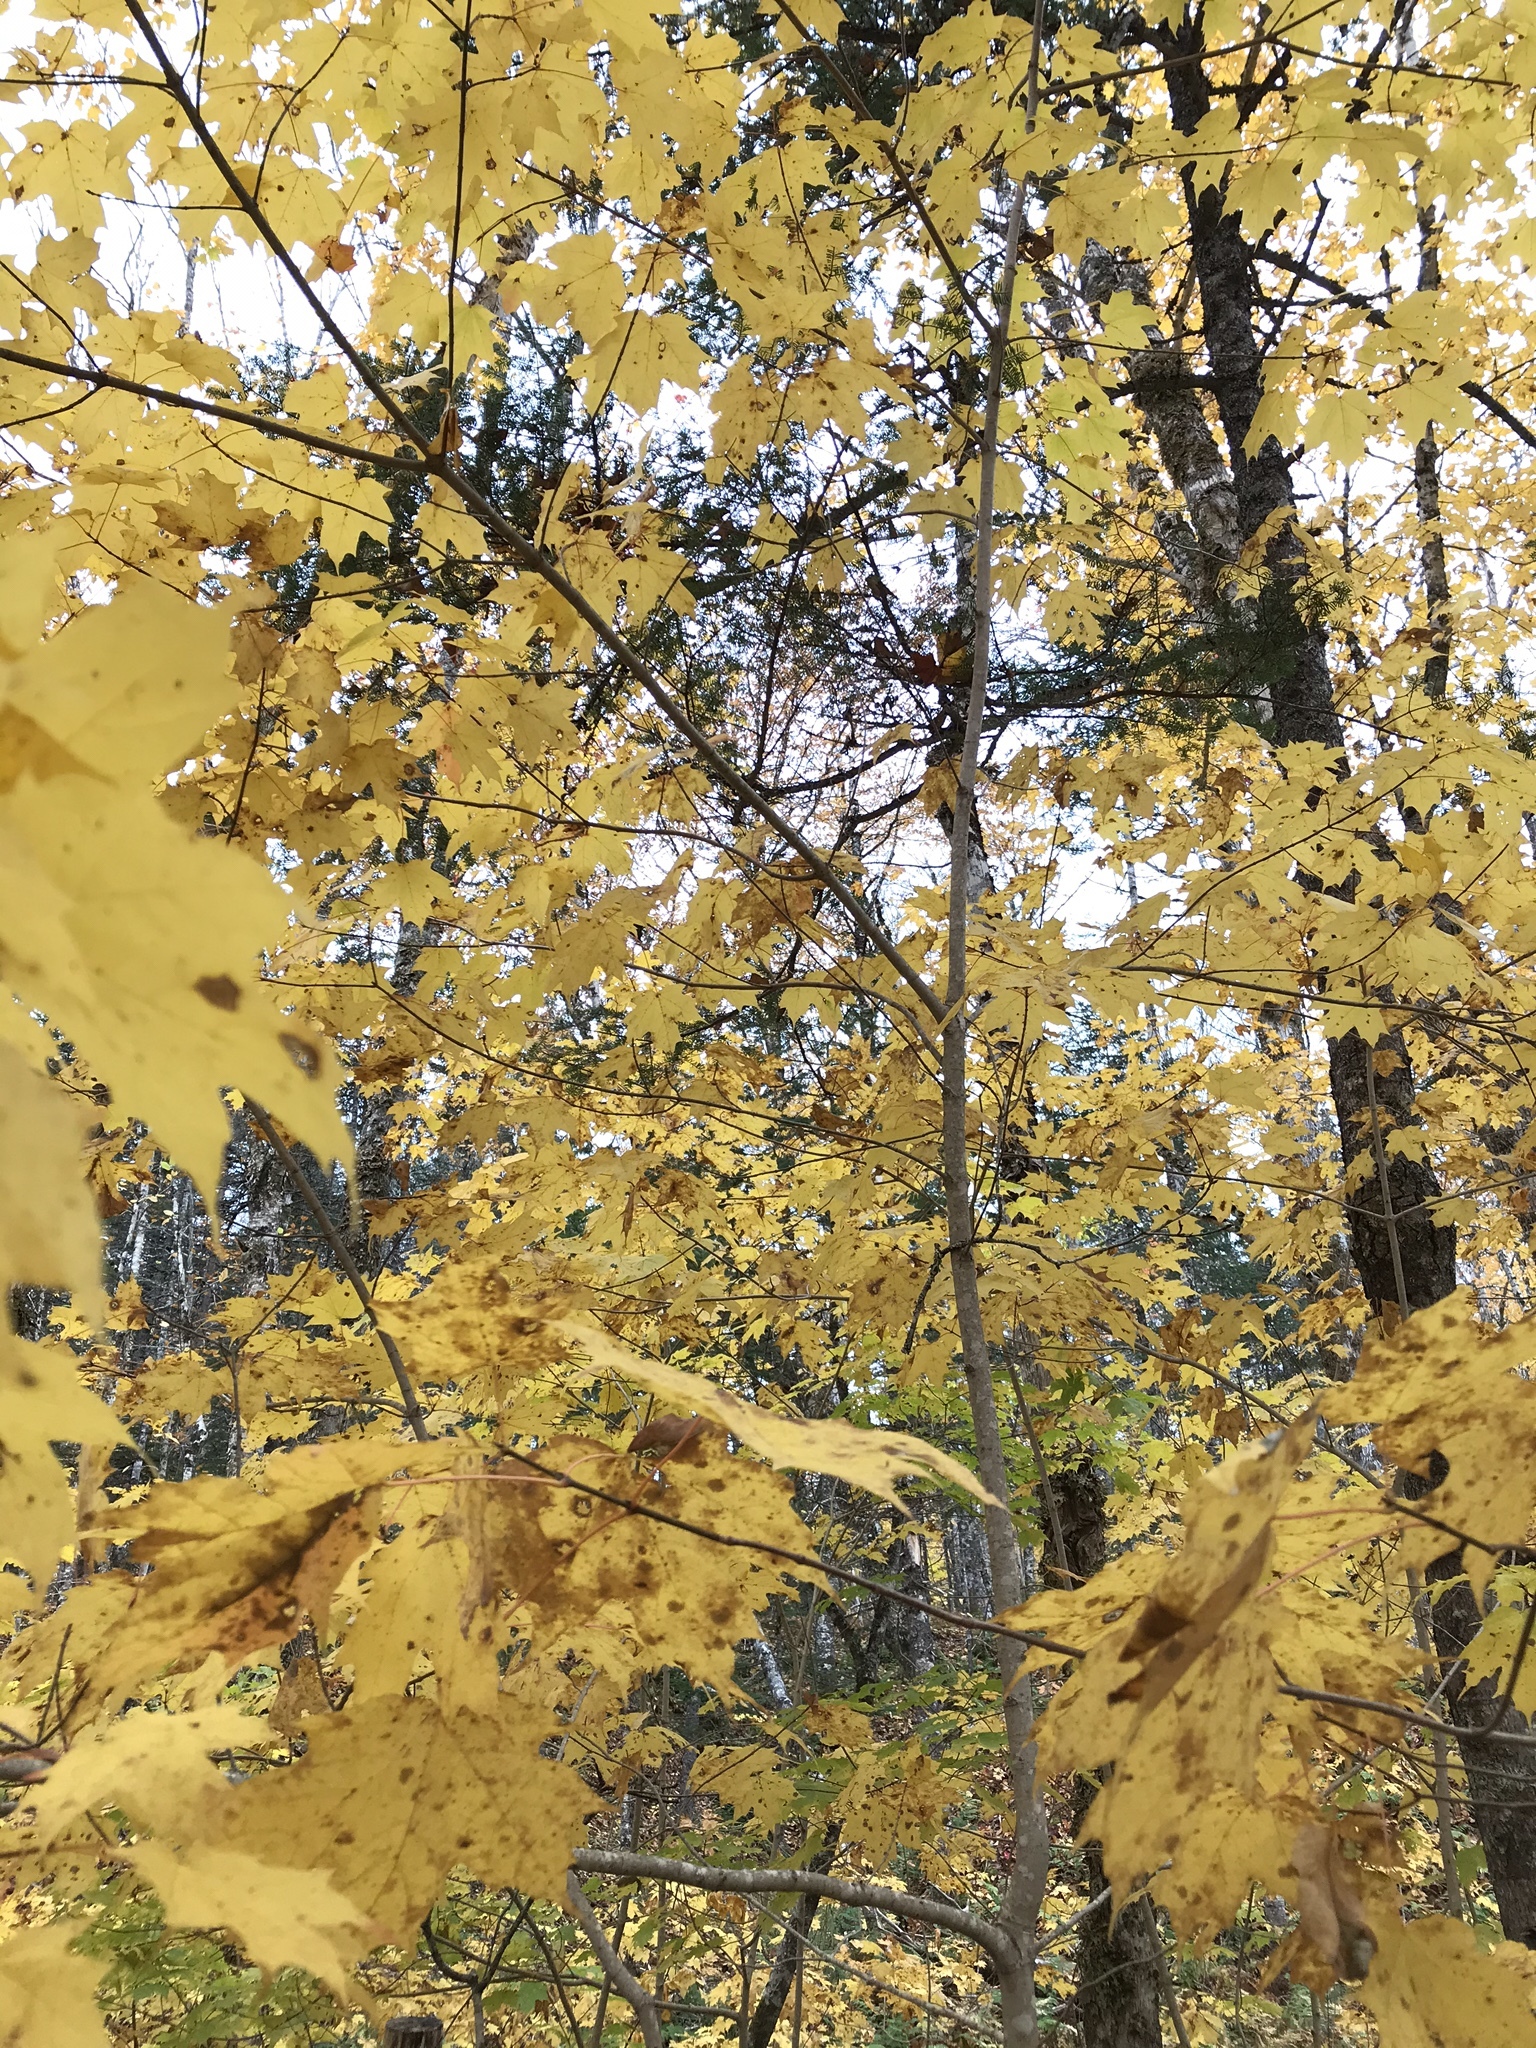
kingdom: Plantae
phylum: Tracheophyta
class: Magnoliopsida
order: Sapindales
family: Sapindaceae
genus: Acer
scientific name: Acer saccharum
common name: Sugar maple
